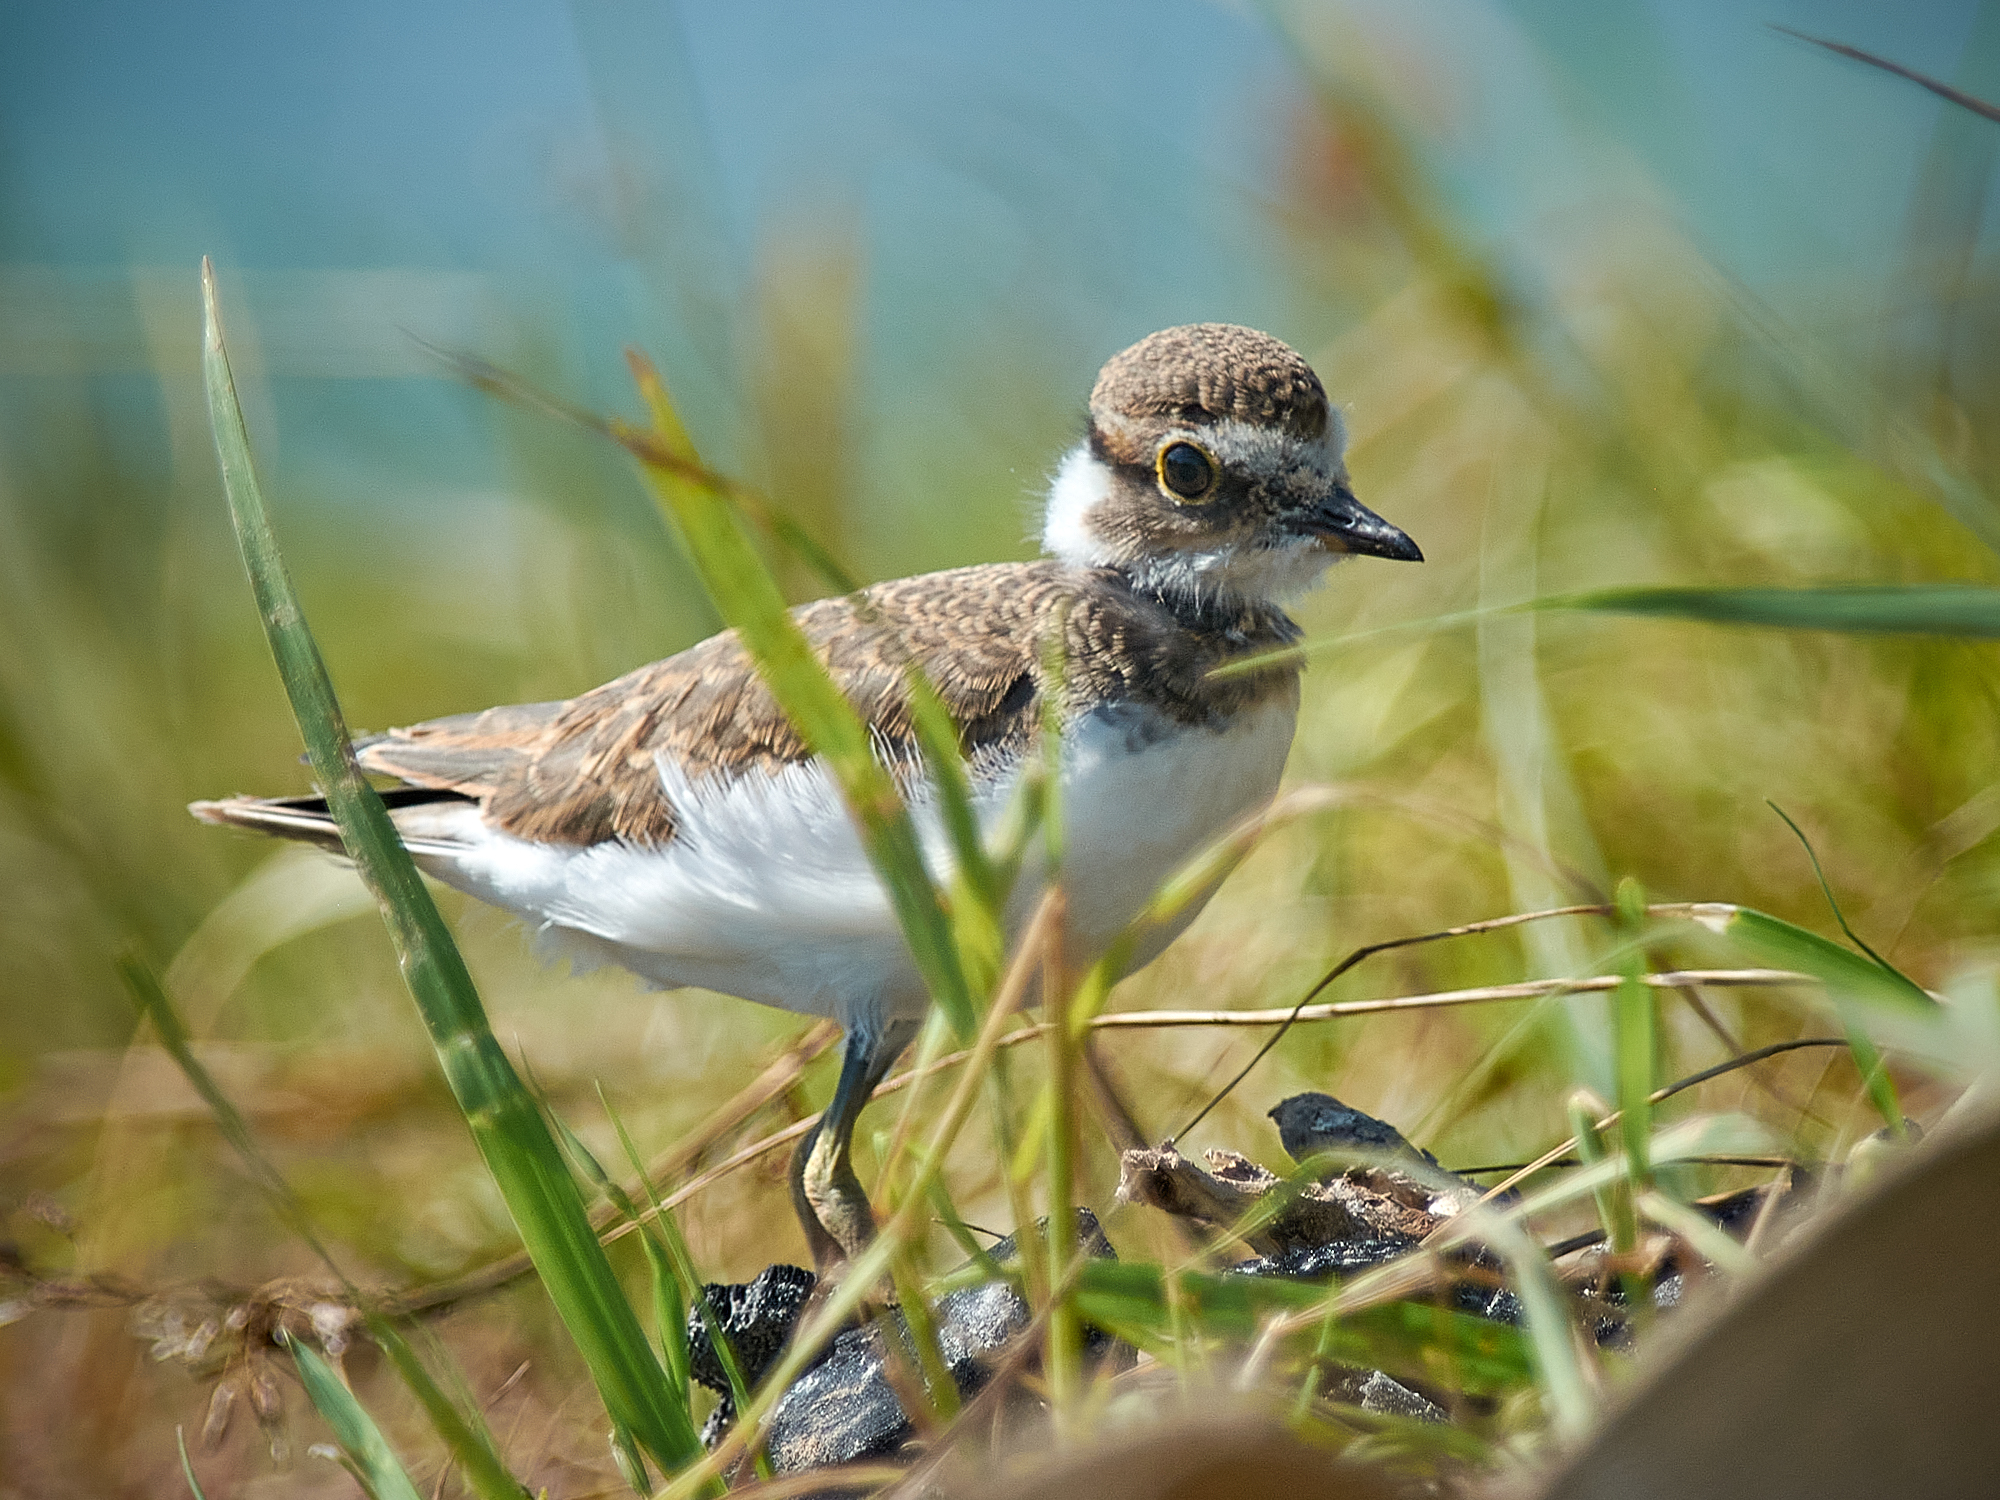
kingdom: Animalia
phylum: Chordata
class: Aves
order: Charadriiformes
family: Charadriidae
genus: Charadrius
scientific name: Charadrius dubius
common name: Little ringed plover
